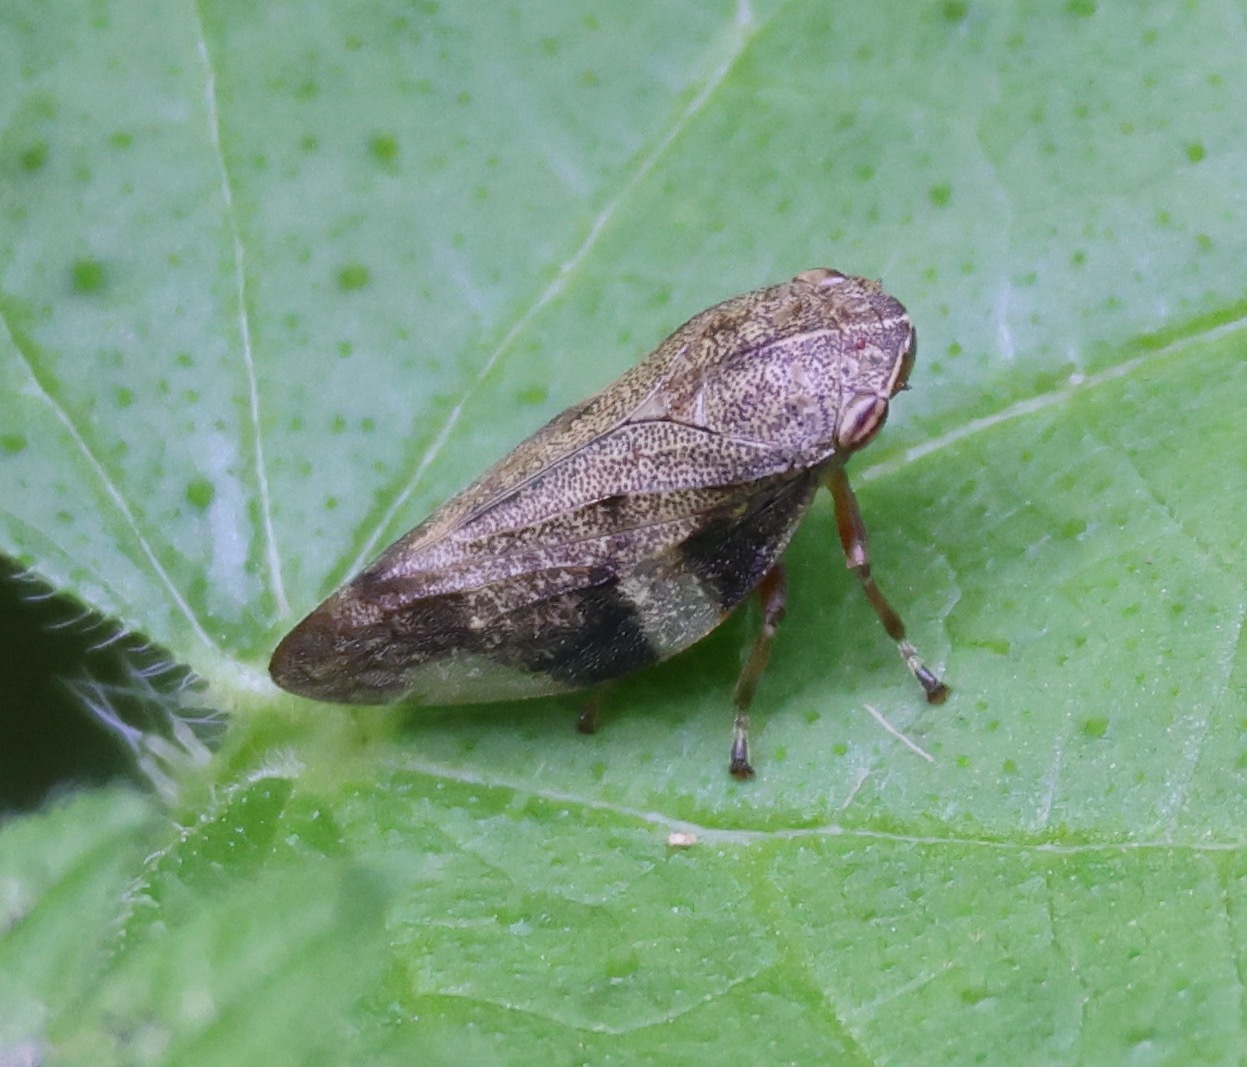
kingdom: Animalia
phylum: Arthropoda
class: Insecta
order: Hemiptera
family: Aphrophoridae
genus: Aphrophora
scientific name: Aphrophora alni
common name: European alder spittlebug
